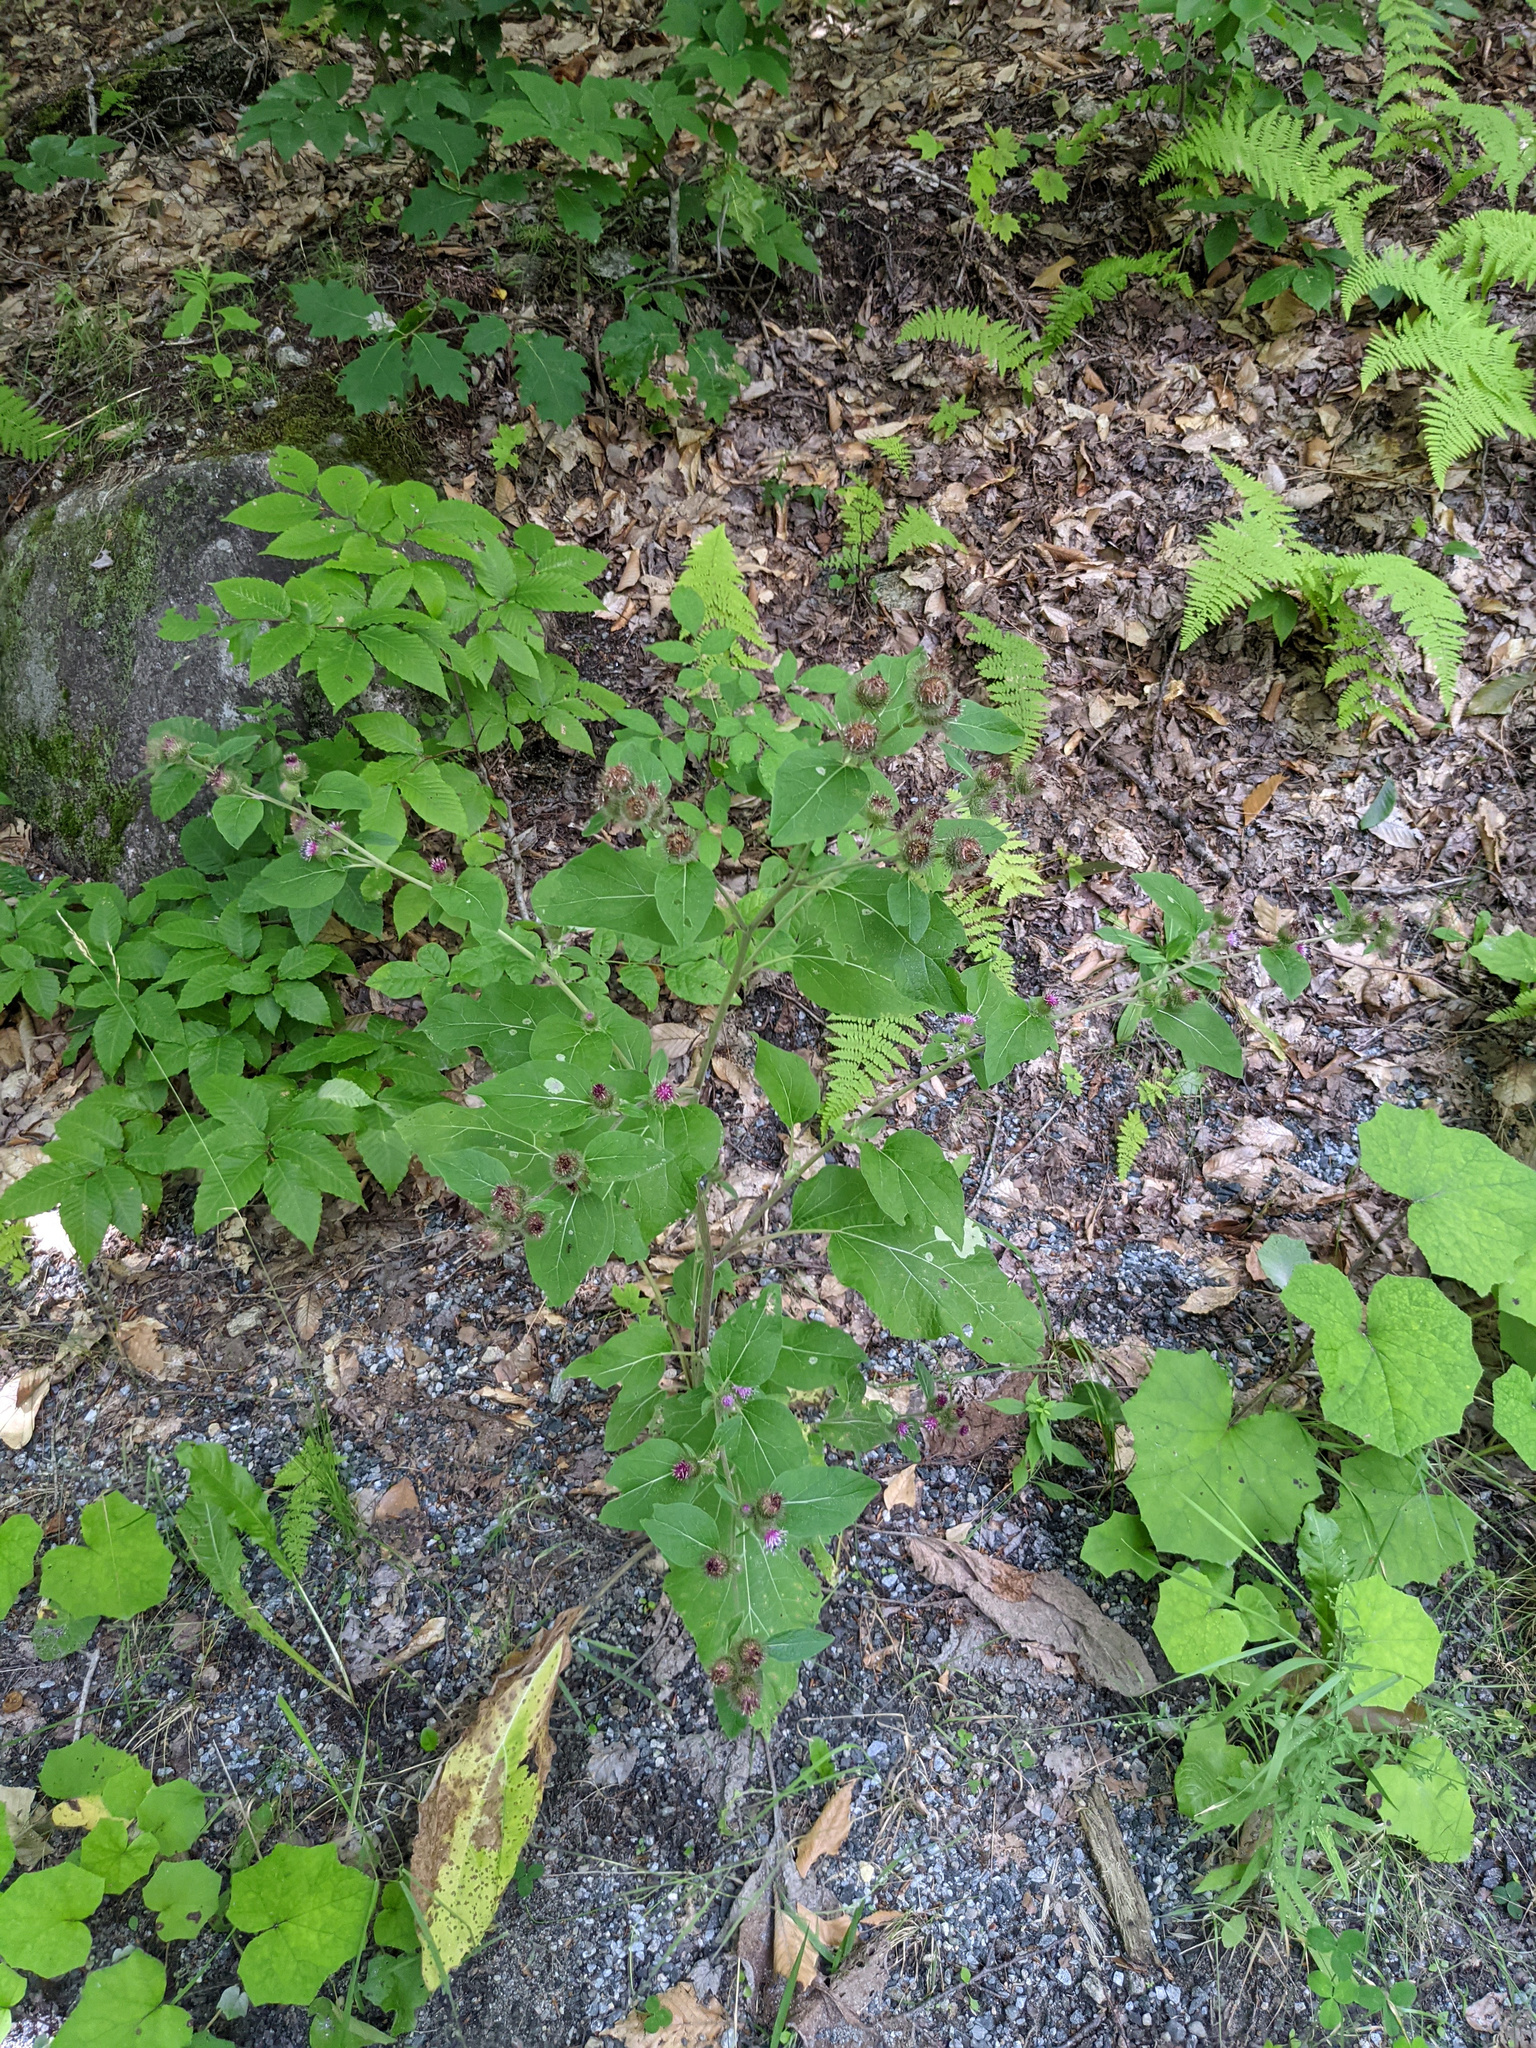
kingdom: Plantae
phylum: Tracheophyta
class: Magnoliopsida
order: Asterales
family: Asteraceae
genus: Arctium
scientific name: Arctium lappa
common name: Greater burdock
